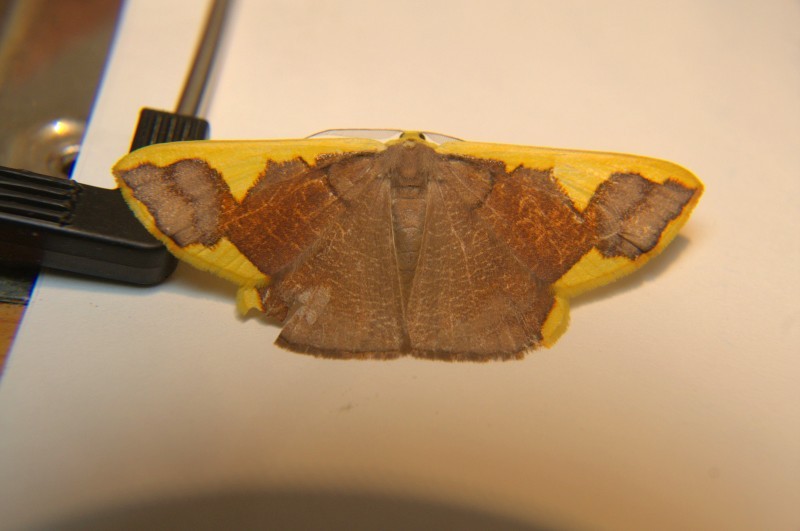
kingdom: Animalia
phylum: Arthropoda
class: Insecta
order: Lepidoptera
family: Geometridae
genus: Plutodes
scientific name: Plutodes costatus
